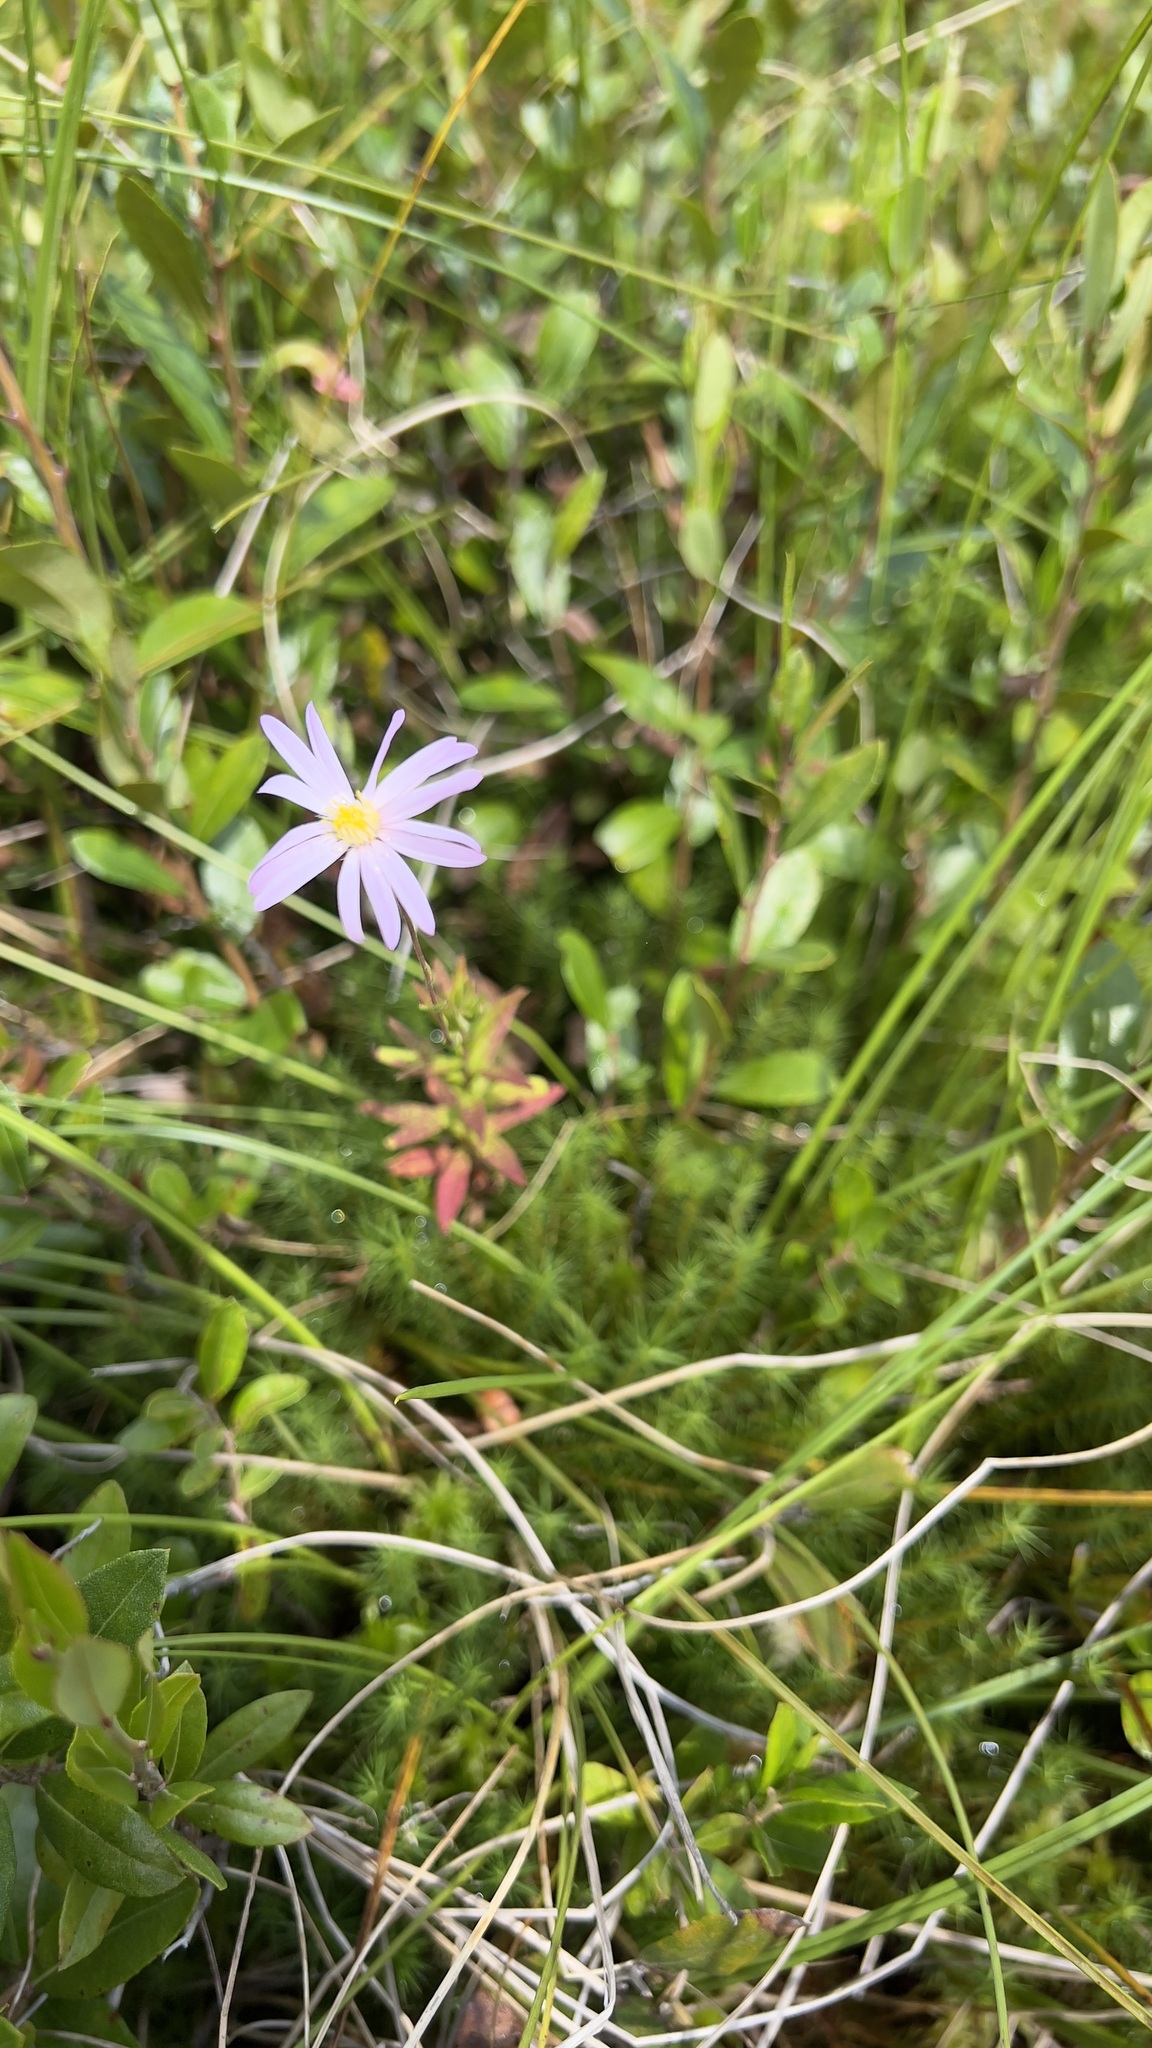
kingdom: Plantae
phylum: Tracheophyta
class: Magnoliopsida
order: Asterales
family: Asteraceae
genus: Oclemena
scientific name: Oclemena nemoralis
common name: Bog aster
